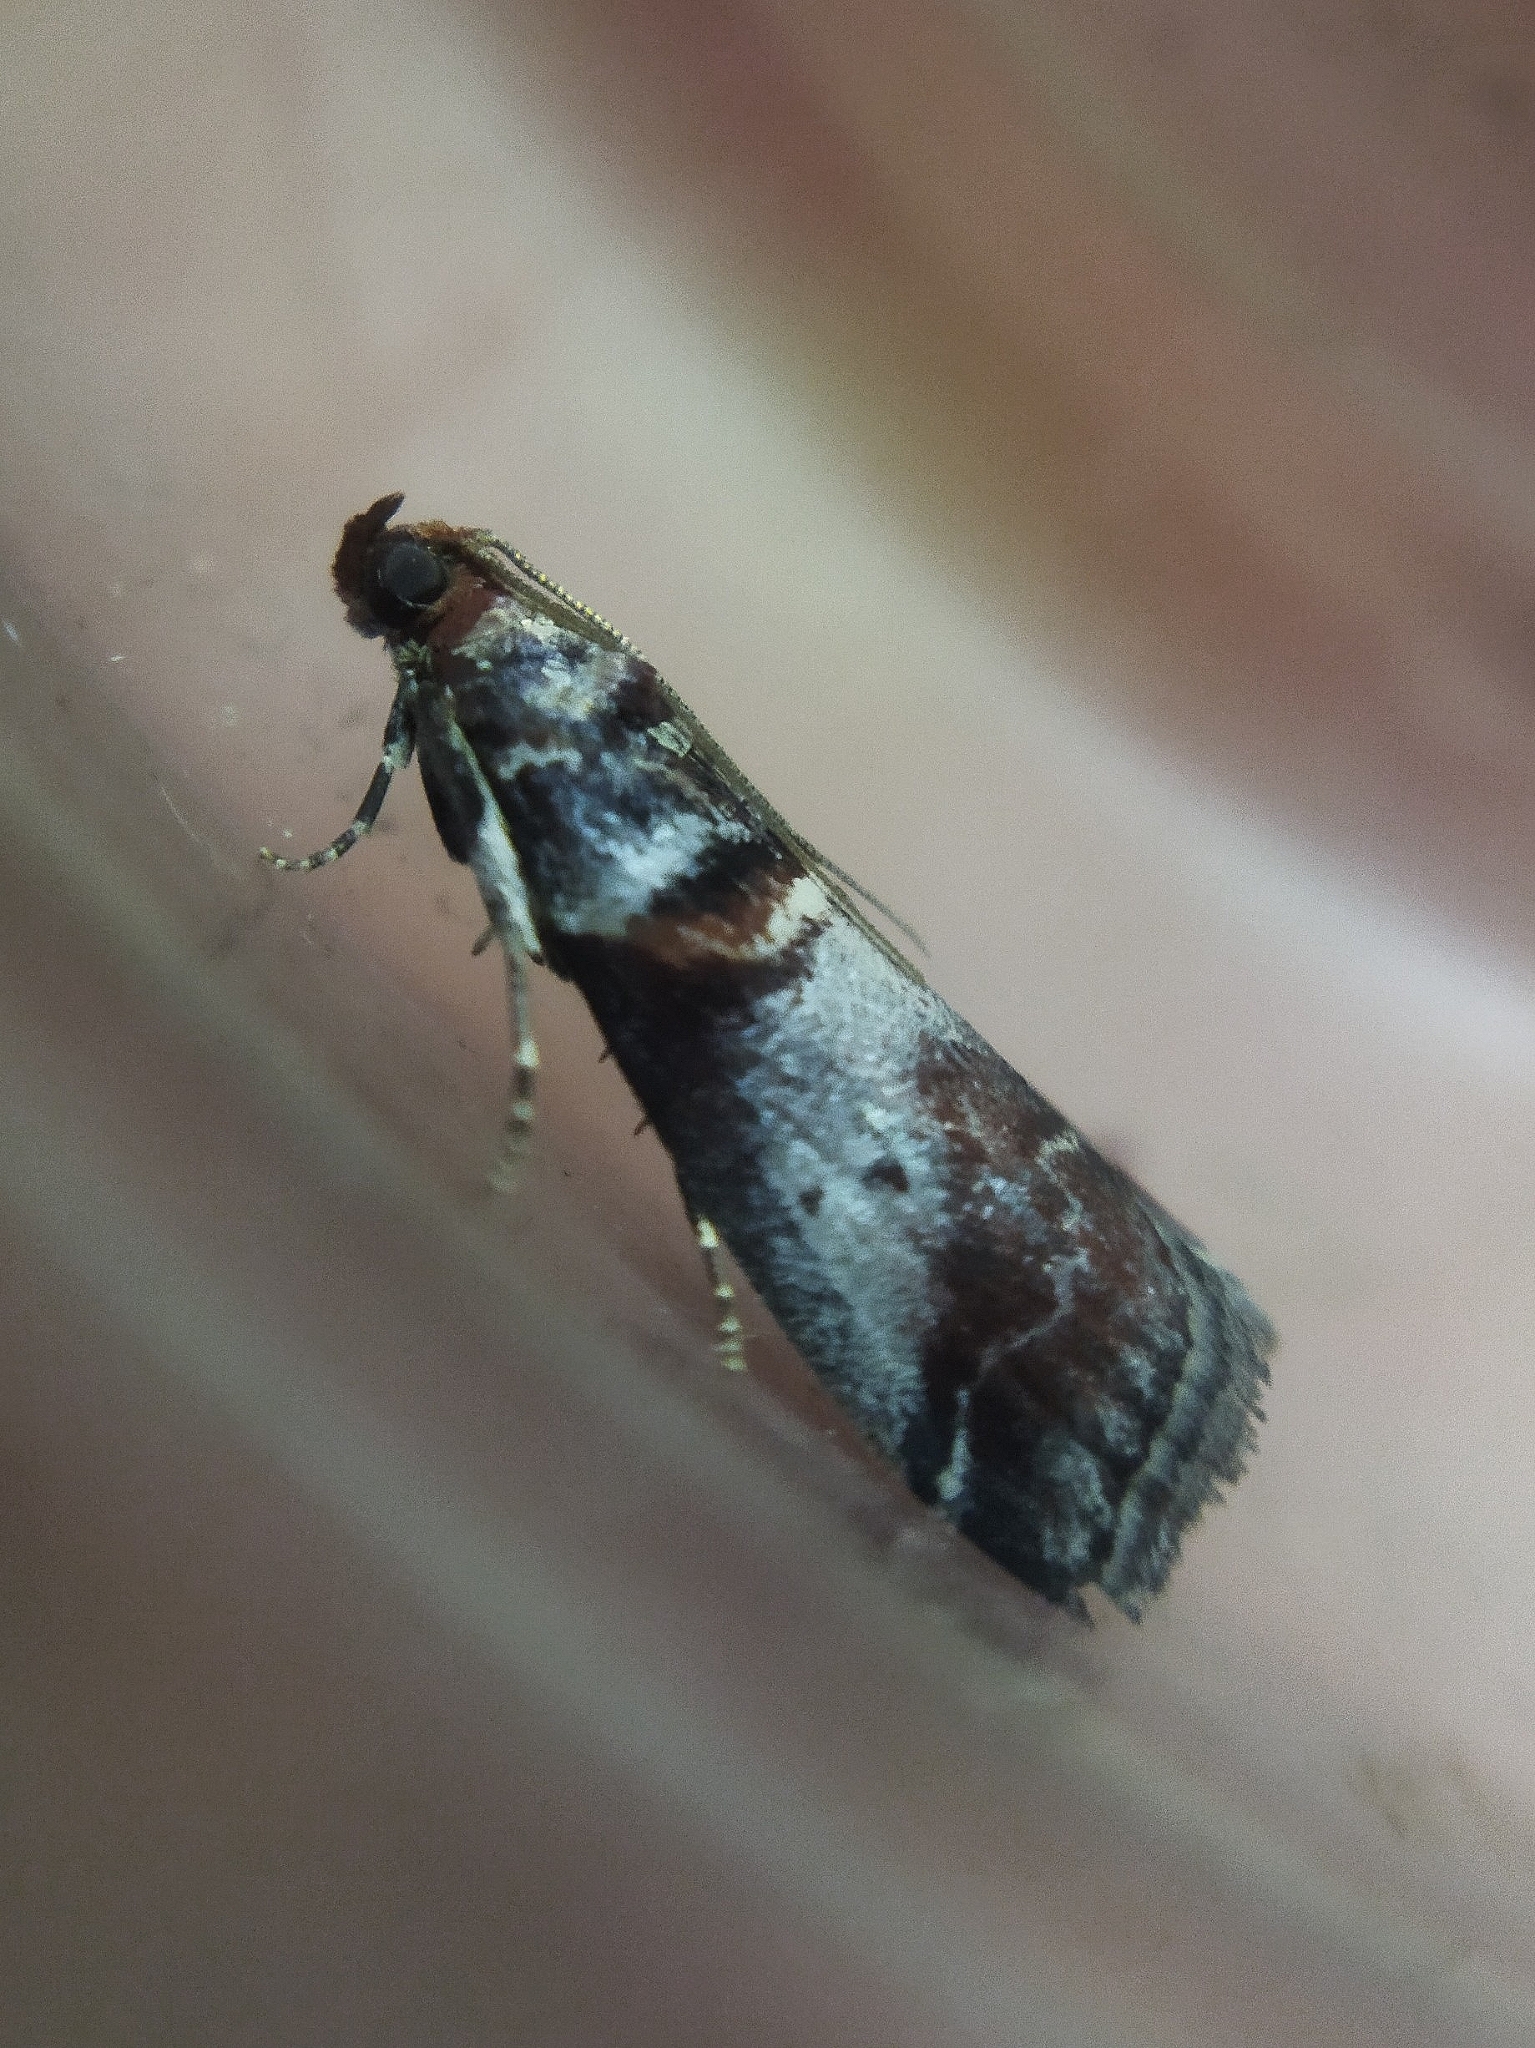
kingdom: Animalia
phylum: Arthropoda
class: Insecta
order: Lepidoptera
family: Pyralidae
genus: Acrobasis
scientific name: Acrobasis advenella
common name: Grey knot-horn
